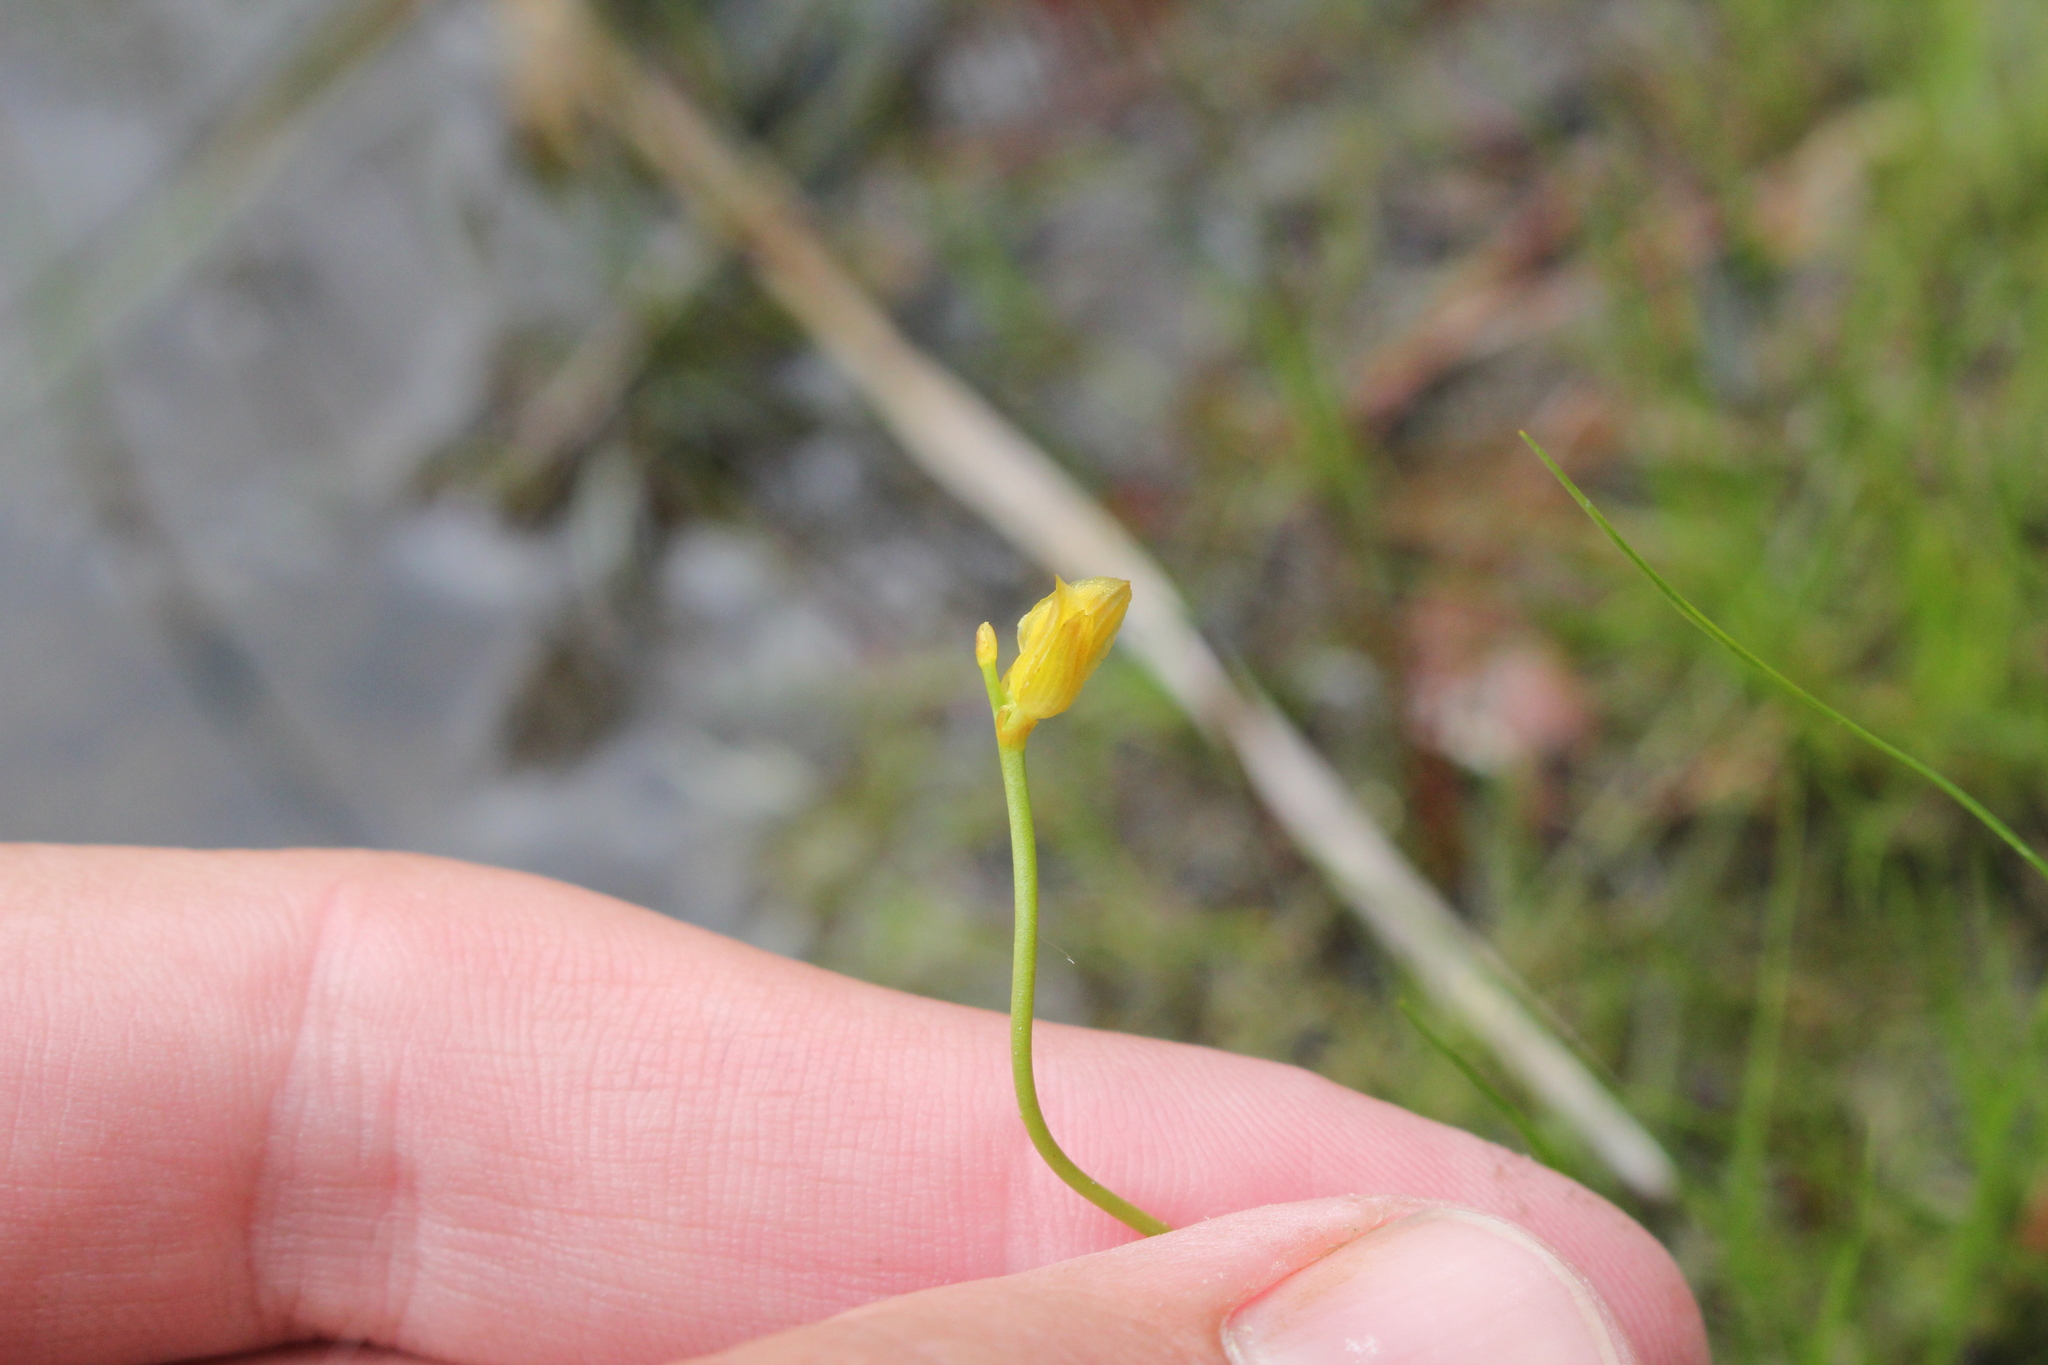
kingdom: Plantae
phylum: Tracheophyta
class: Magnoliopsida
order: Lamiales
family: Lentibulariaceae
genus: Utricularia
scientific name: Utricularia cornuta
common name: Horned bladderwort
